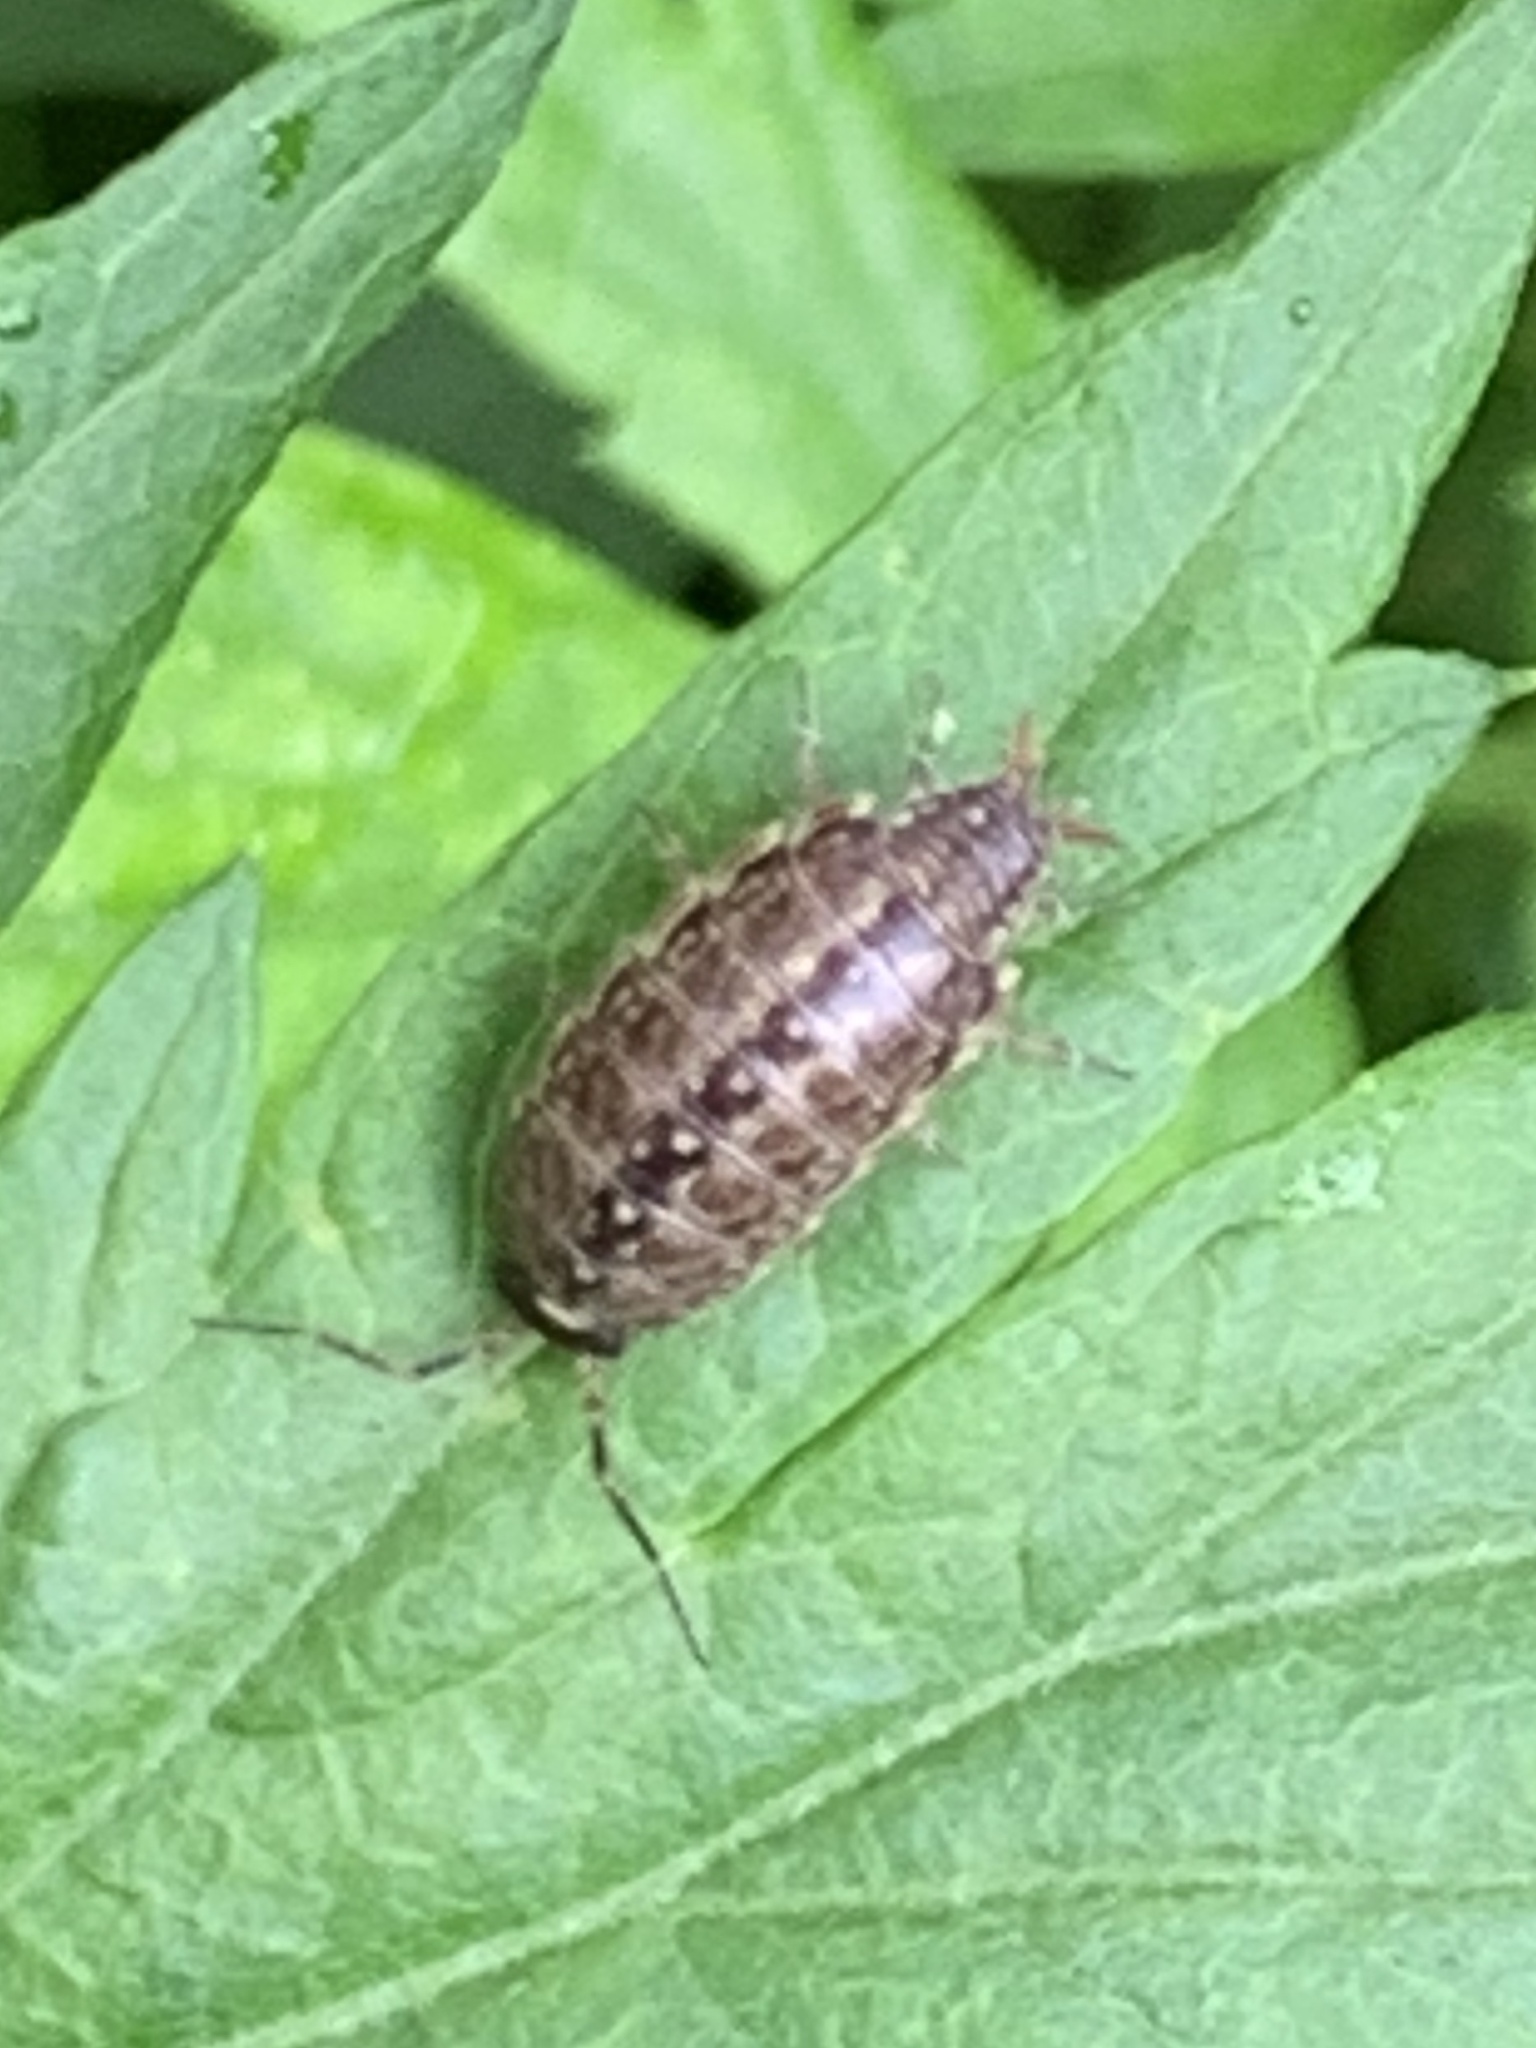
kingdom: Animalia
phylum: Arthropoda
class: Malacostraca
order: Isopoda
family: Philosciidae
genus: Philoscia
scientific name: Philoscia muscorum
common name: Common striped woodlouse
